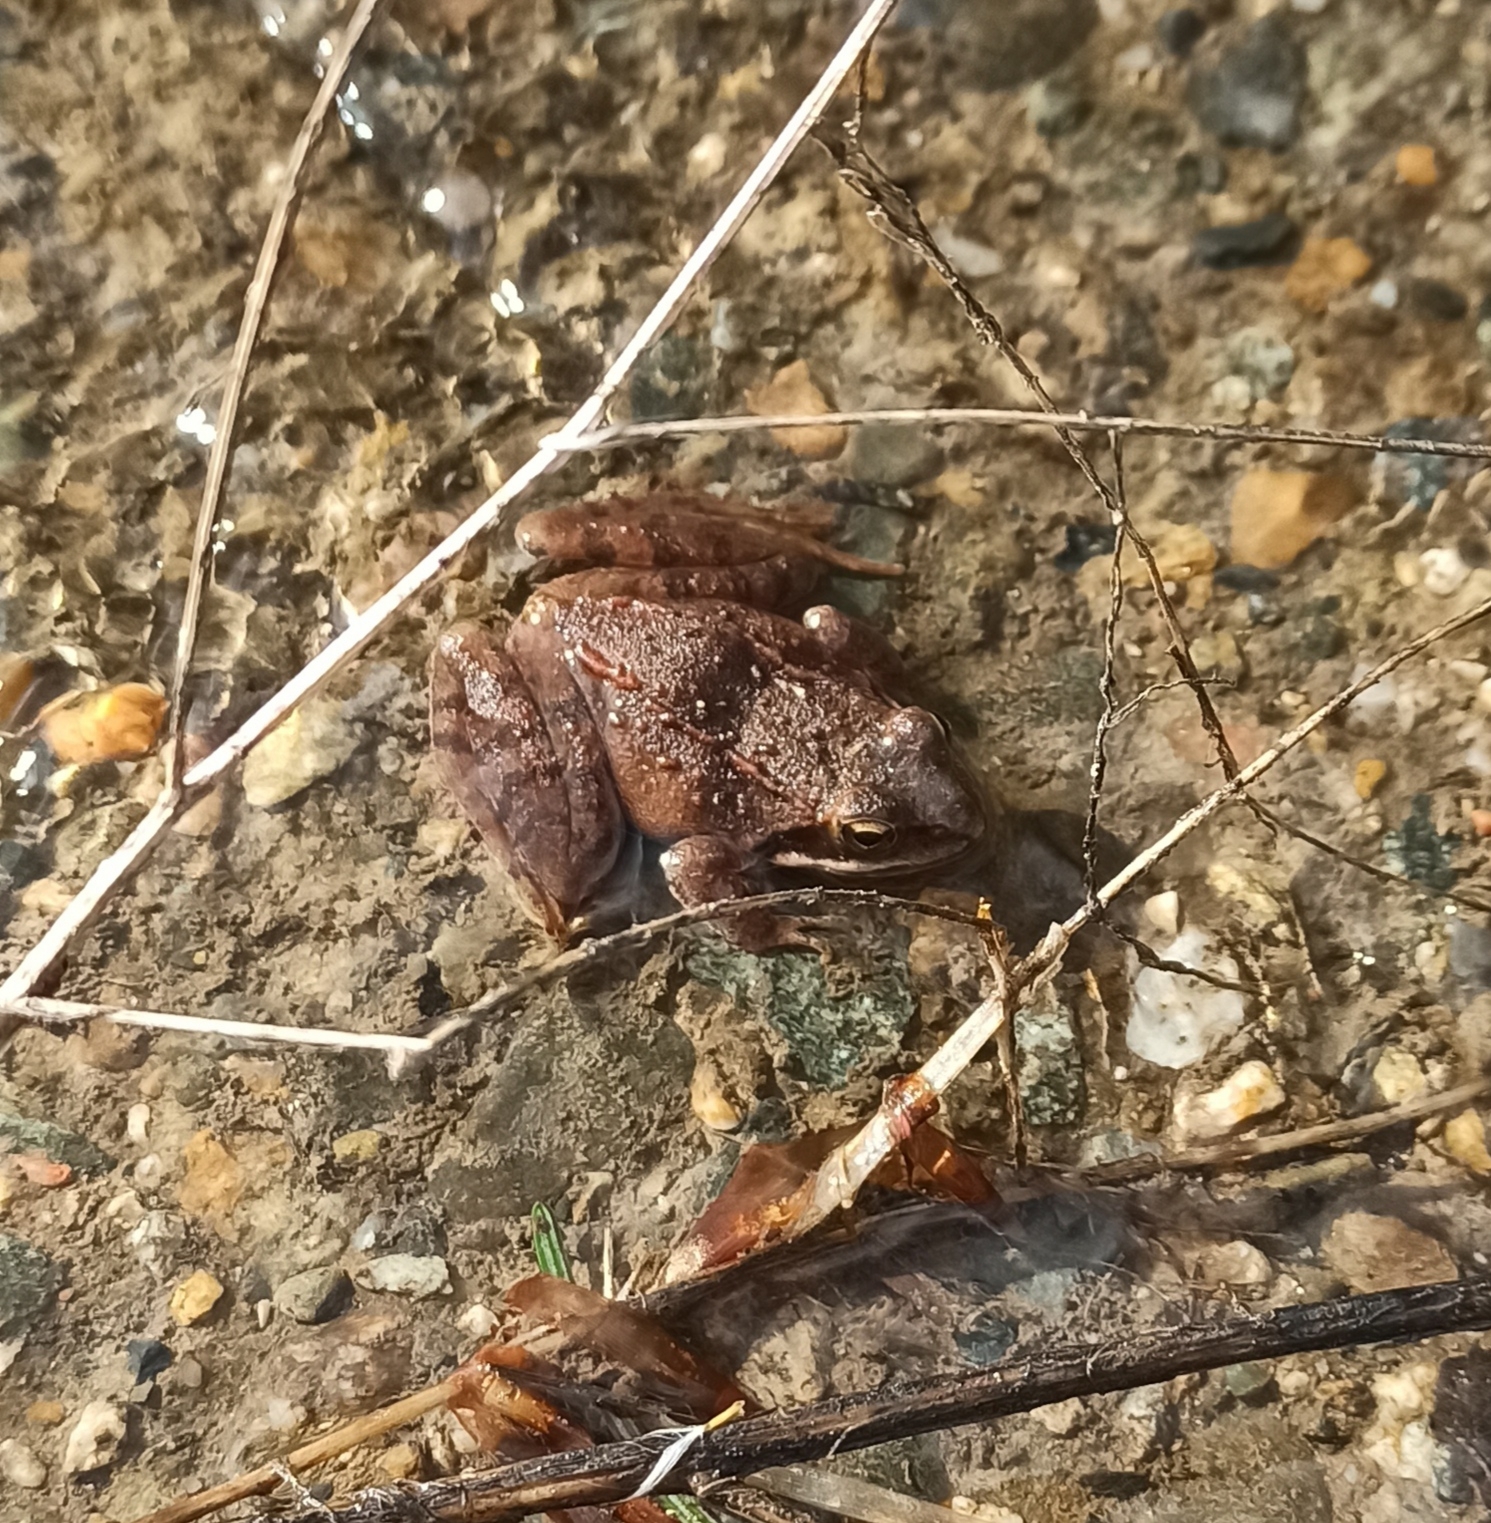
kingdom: Animalia
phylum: Chordata
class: Amphibia
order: Anura
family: Ranidae
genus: Rana
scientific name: Rana macrocnemis
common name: Banded frog
